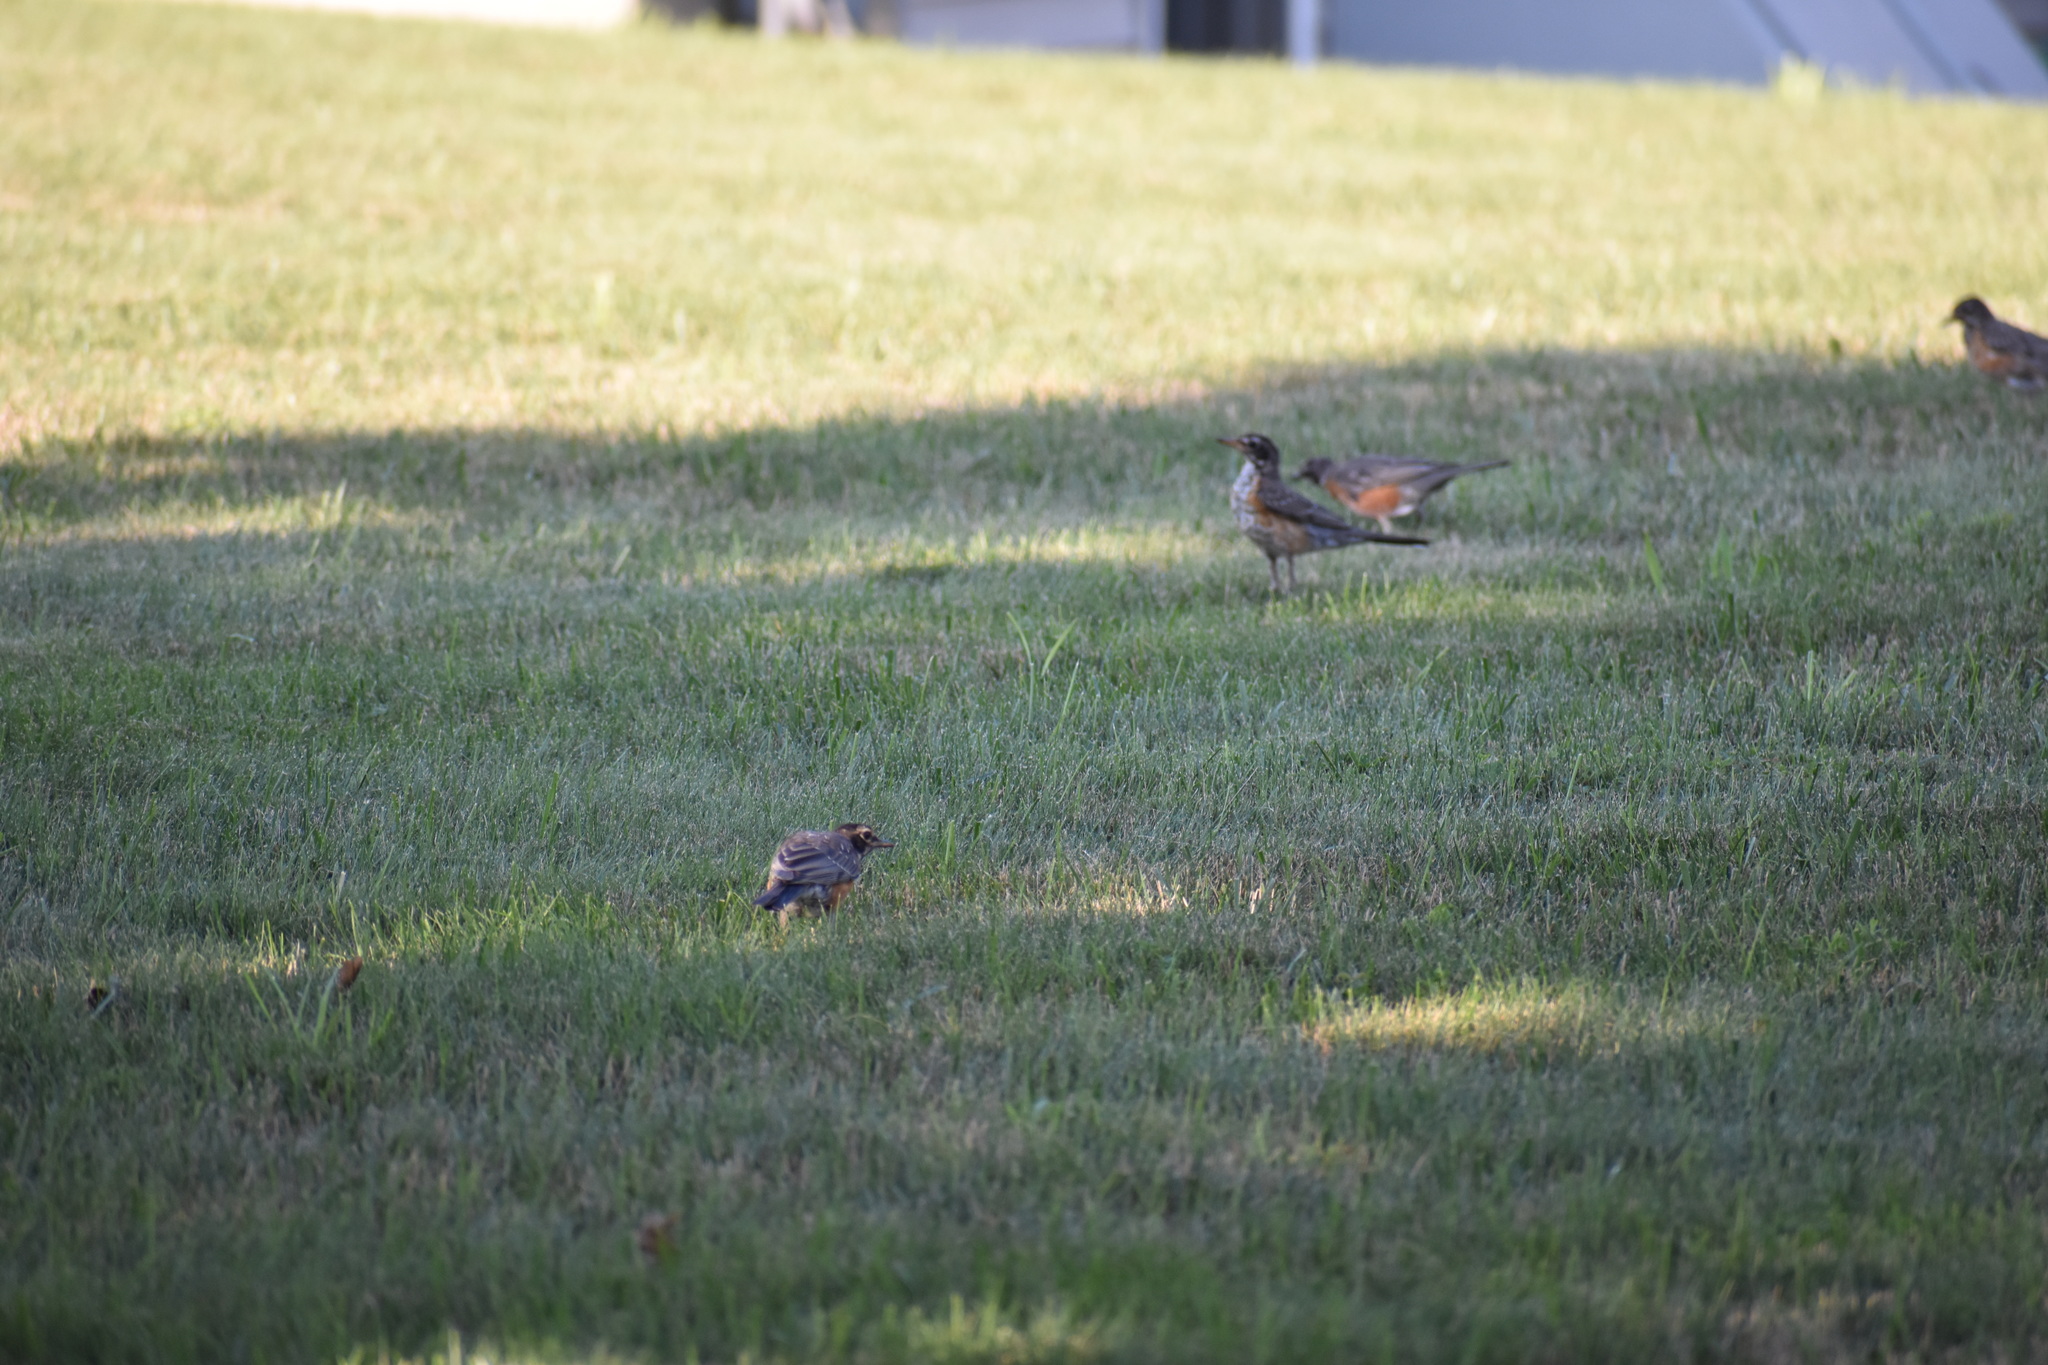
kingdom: Animalia
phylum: Chordata
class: Aves
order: Passeriformes
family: Turdidae
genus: Turdus
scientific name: Turdus migratorius
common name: American robin
